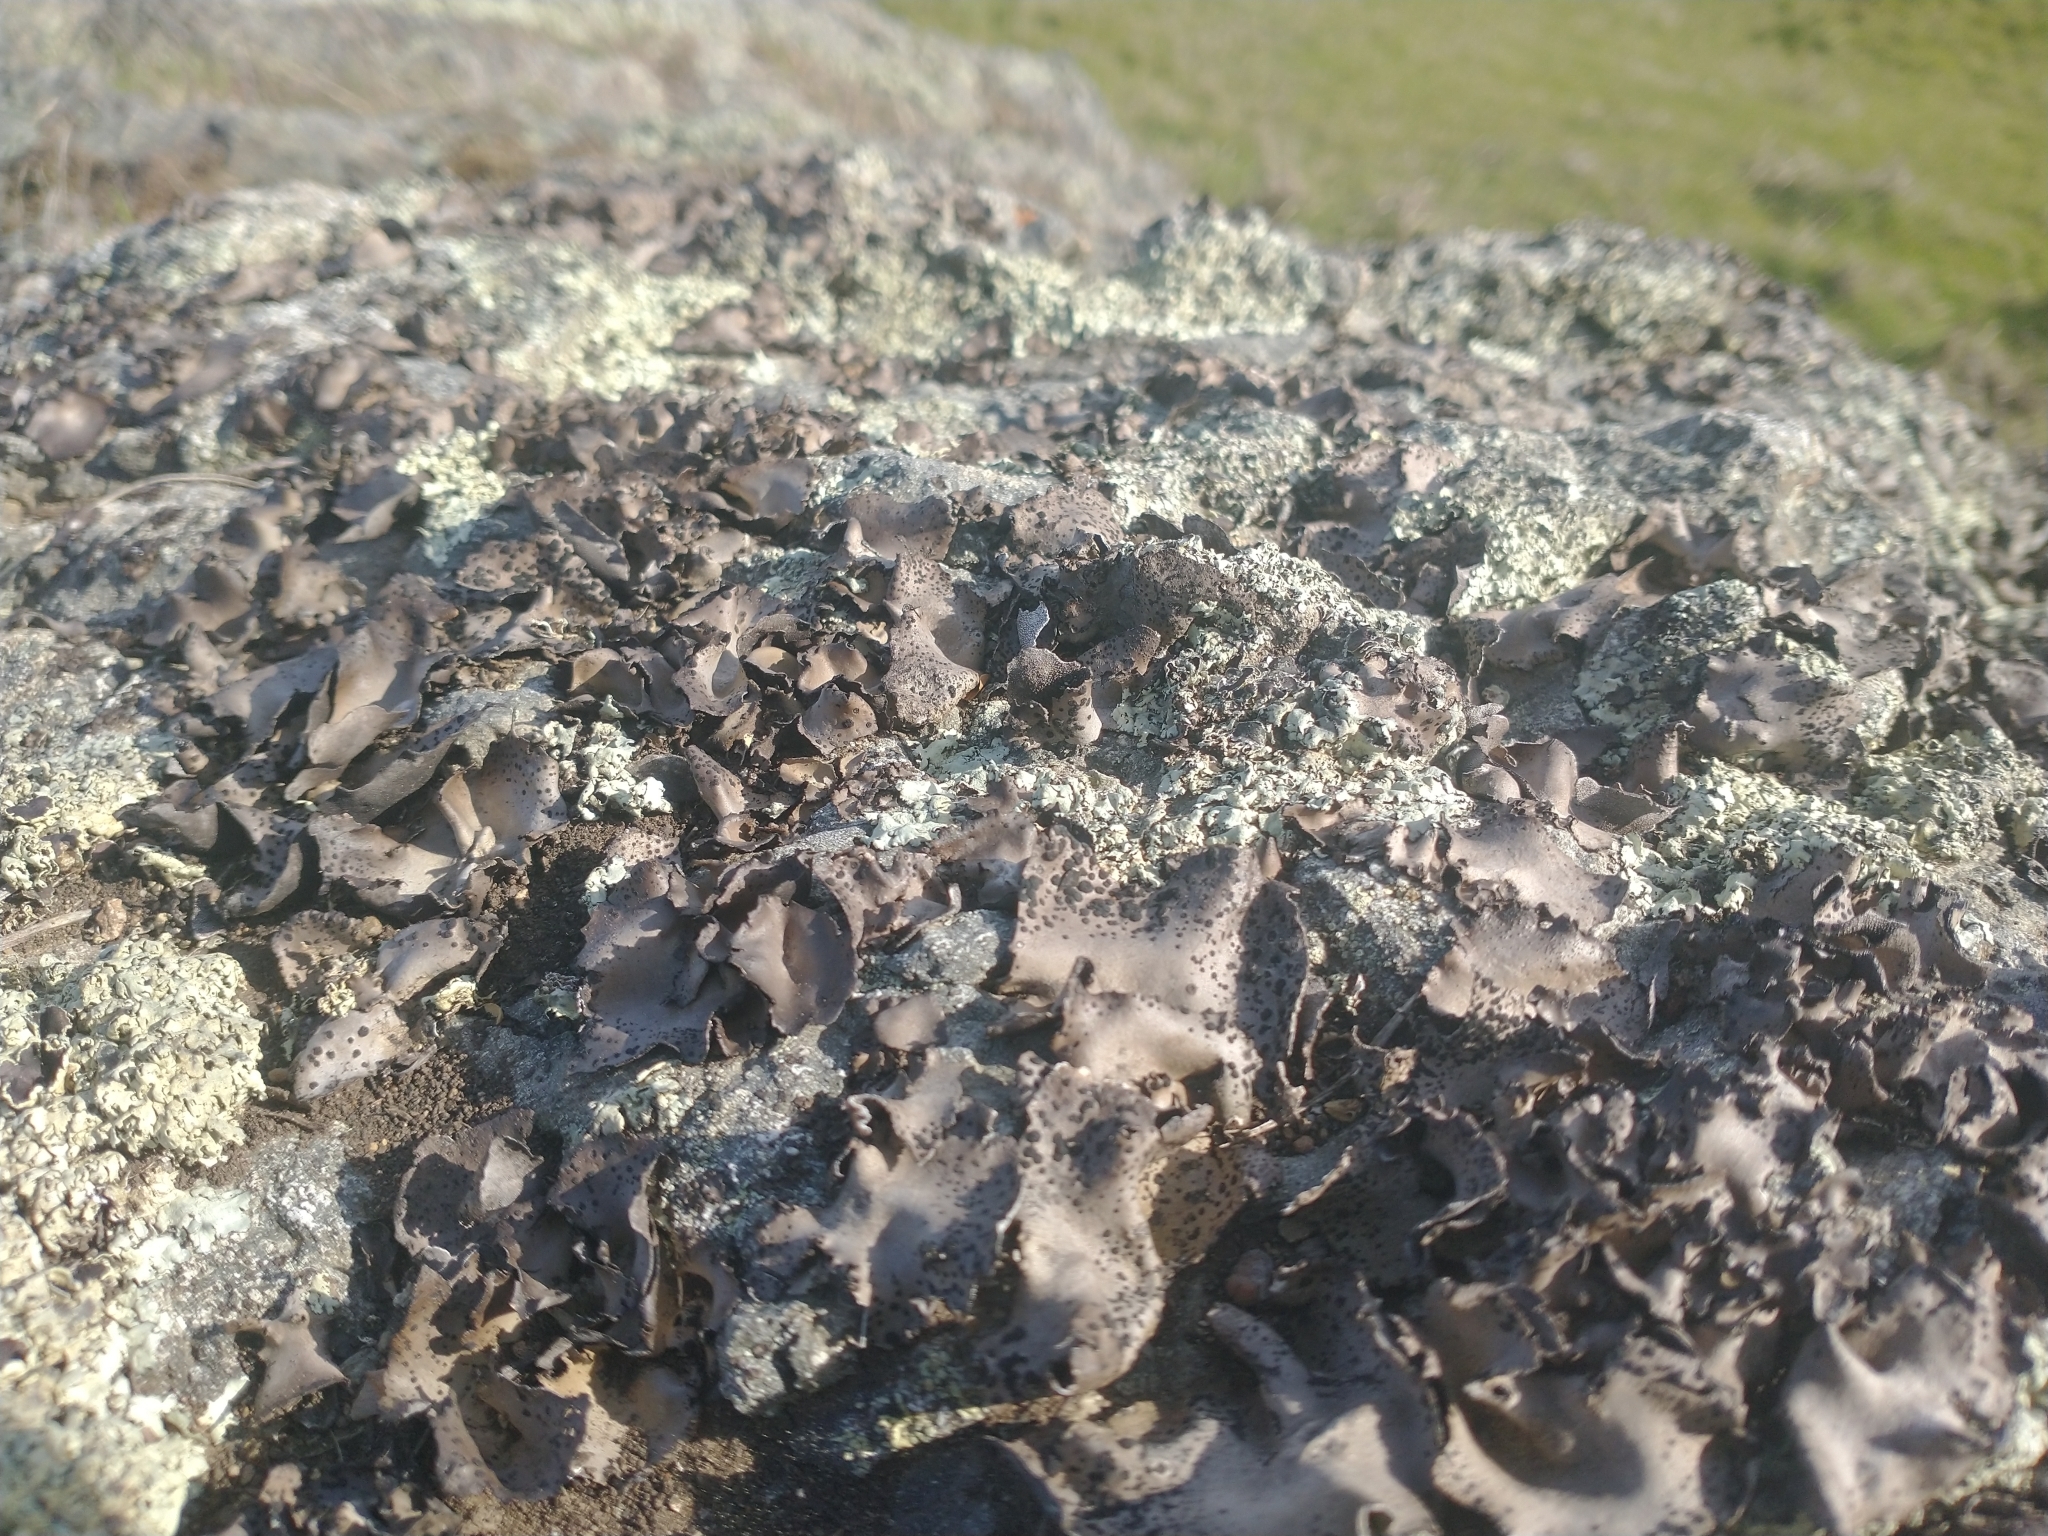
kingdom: Fungi
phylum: Ascomycota
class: Lecanoromycetes
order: Umbilicariales
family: Umbilicariaceae
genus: Umbilicaria
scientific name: Umbilicaria phaea
